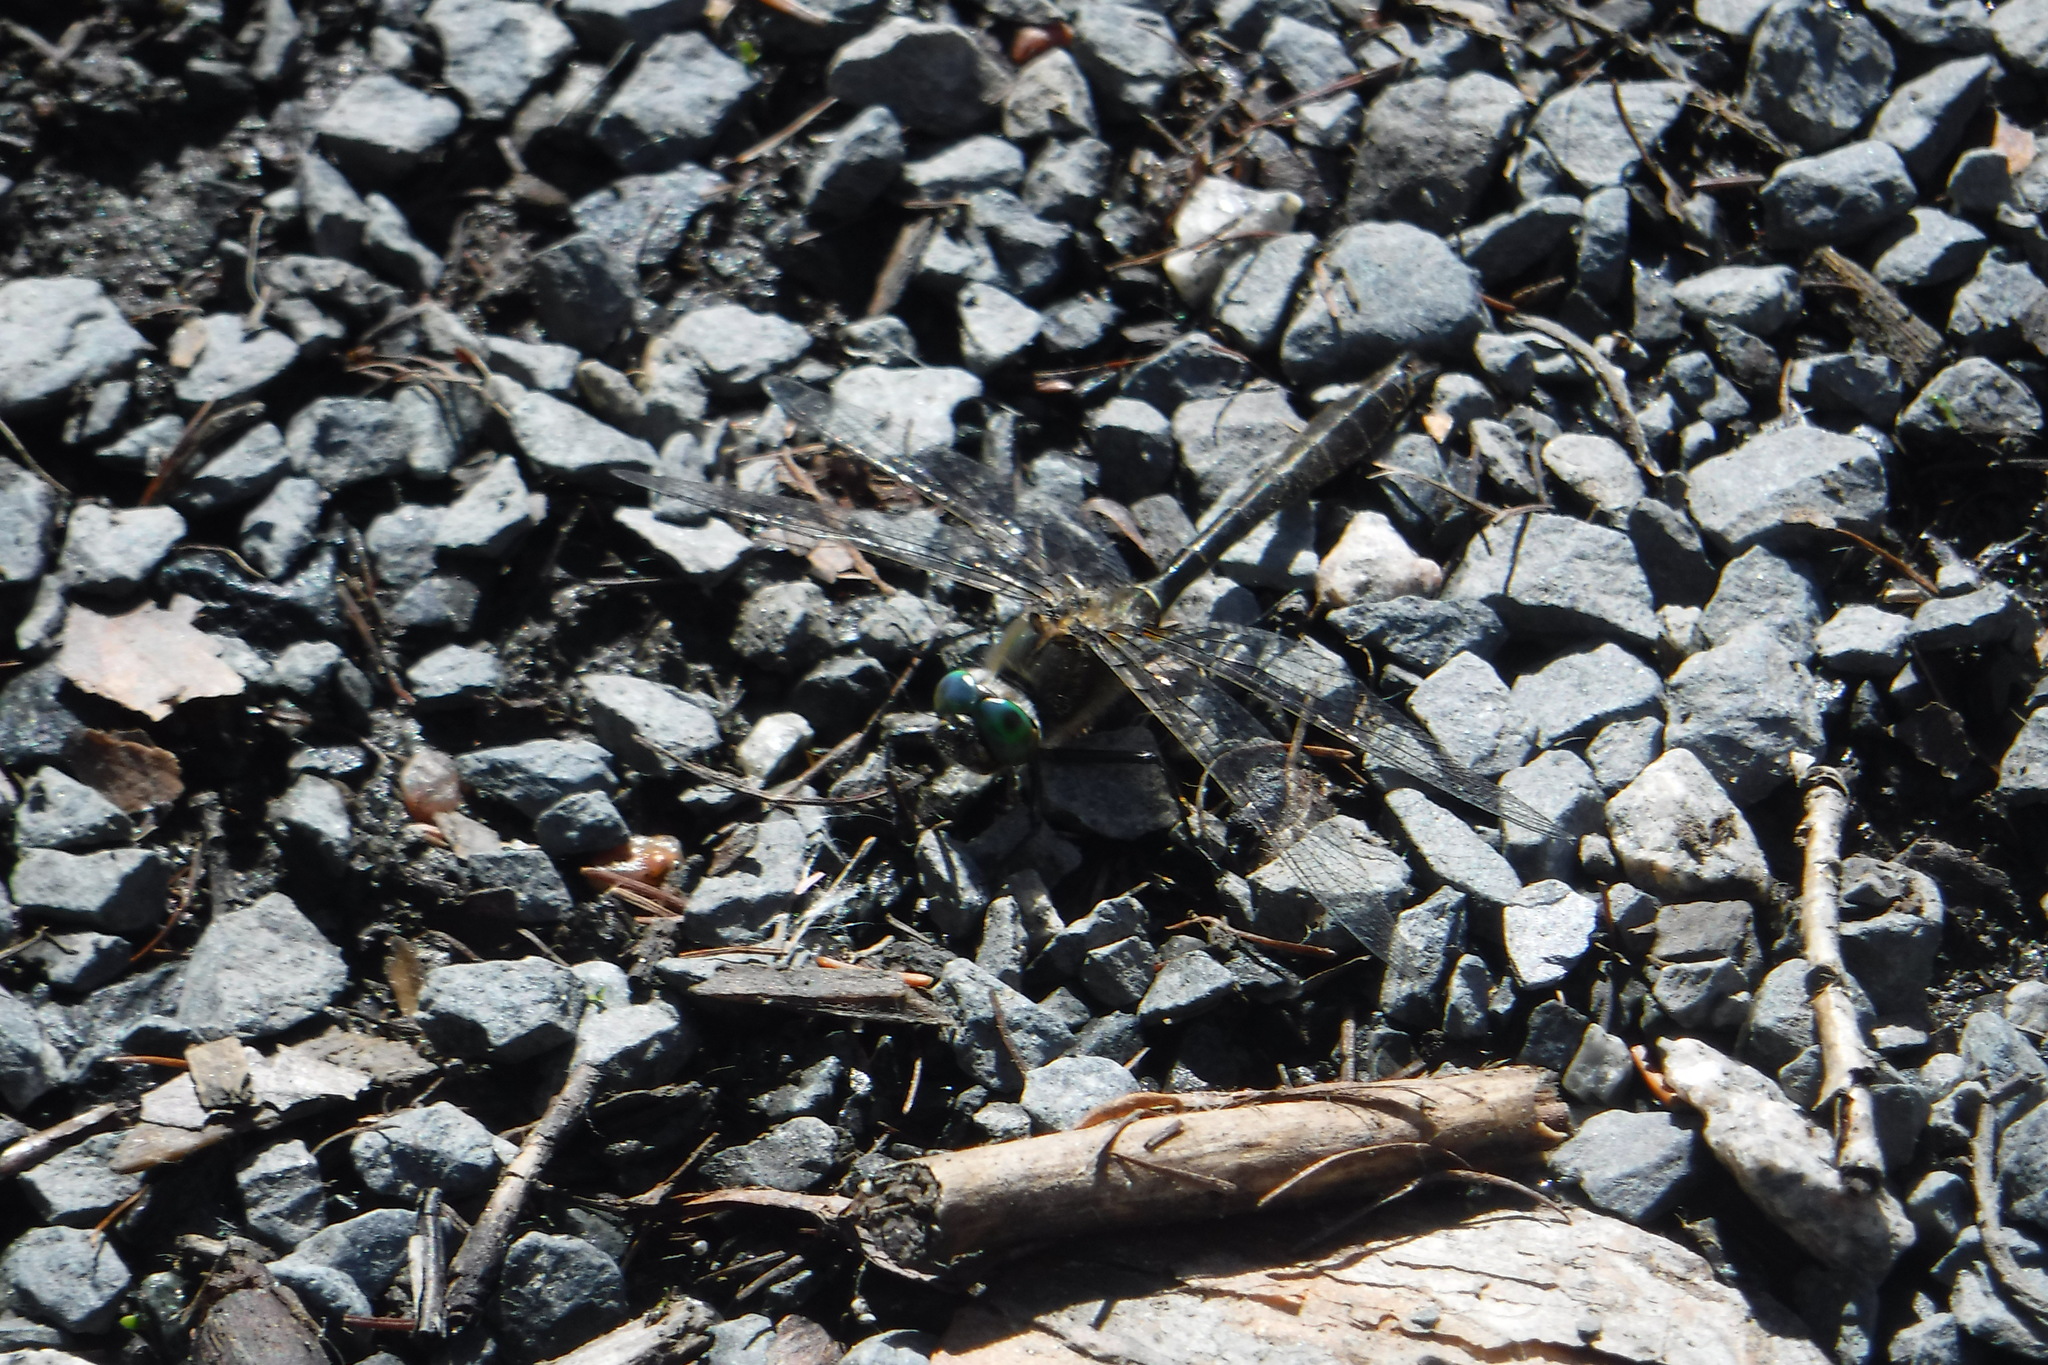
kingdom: Animalia
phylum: Arthropoda
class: Insecta
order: Odonata
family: Corduliidae
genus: Cordulia
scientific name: Cordulia shurtleffii
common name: American emerald
